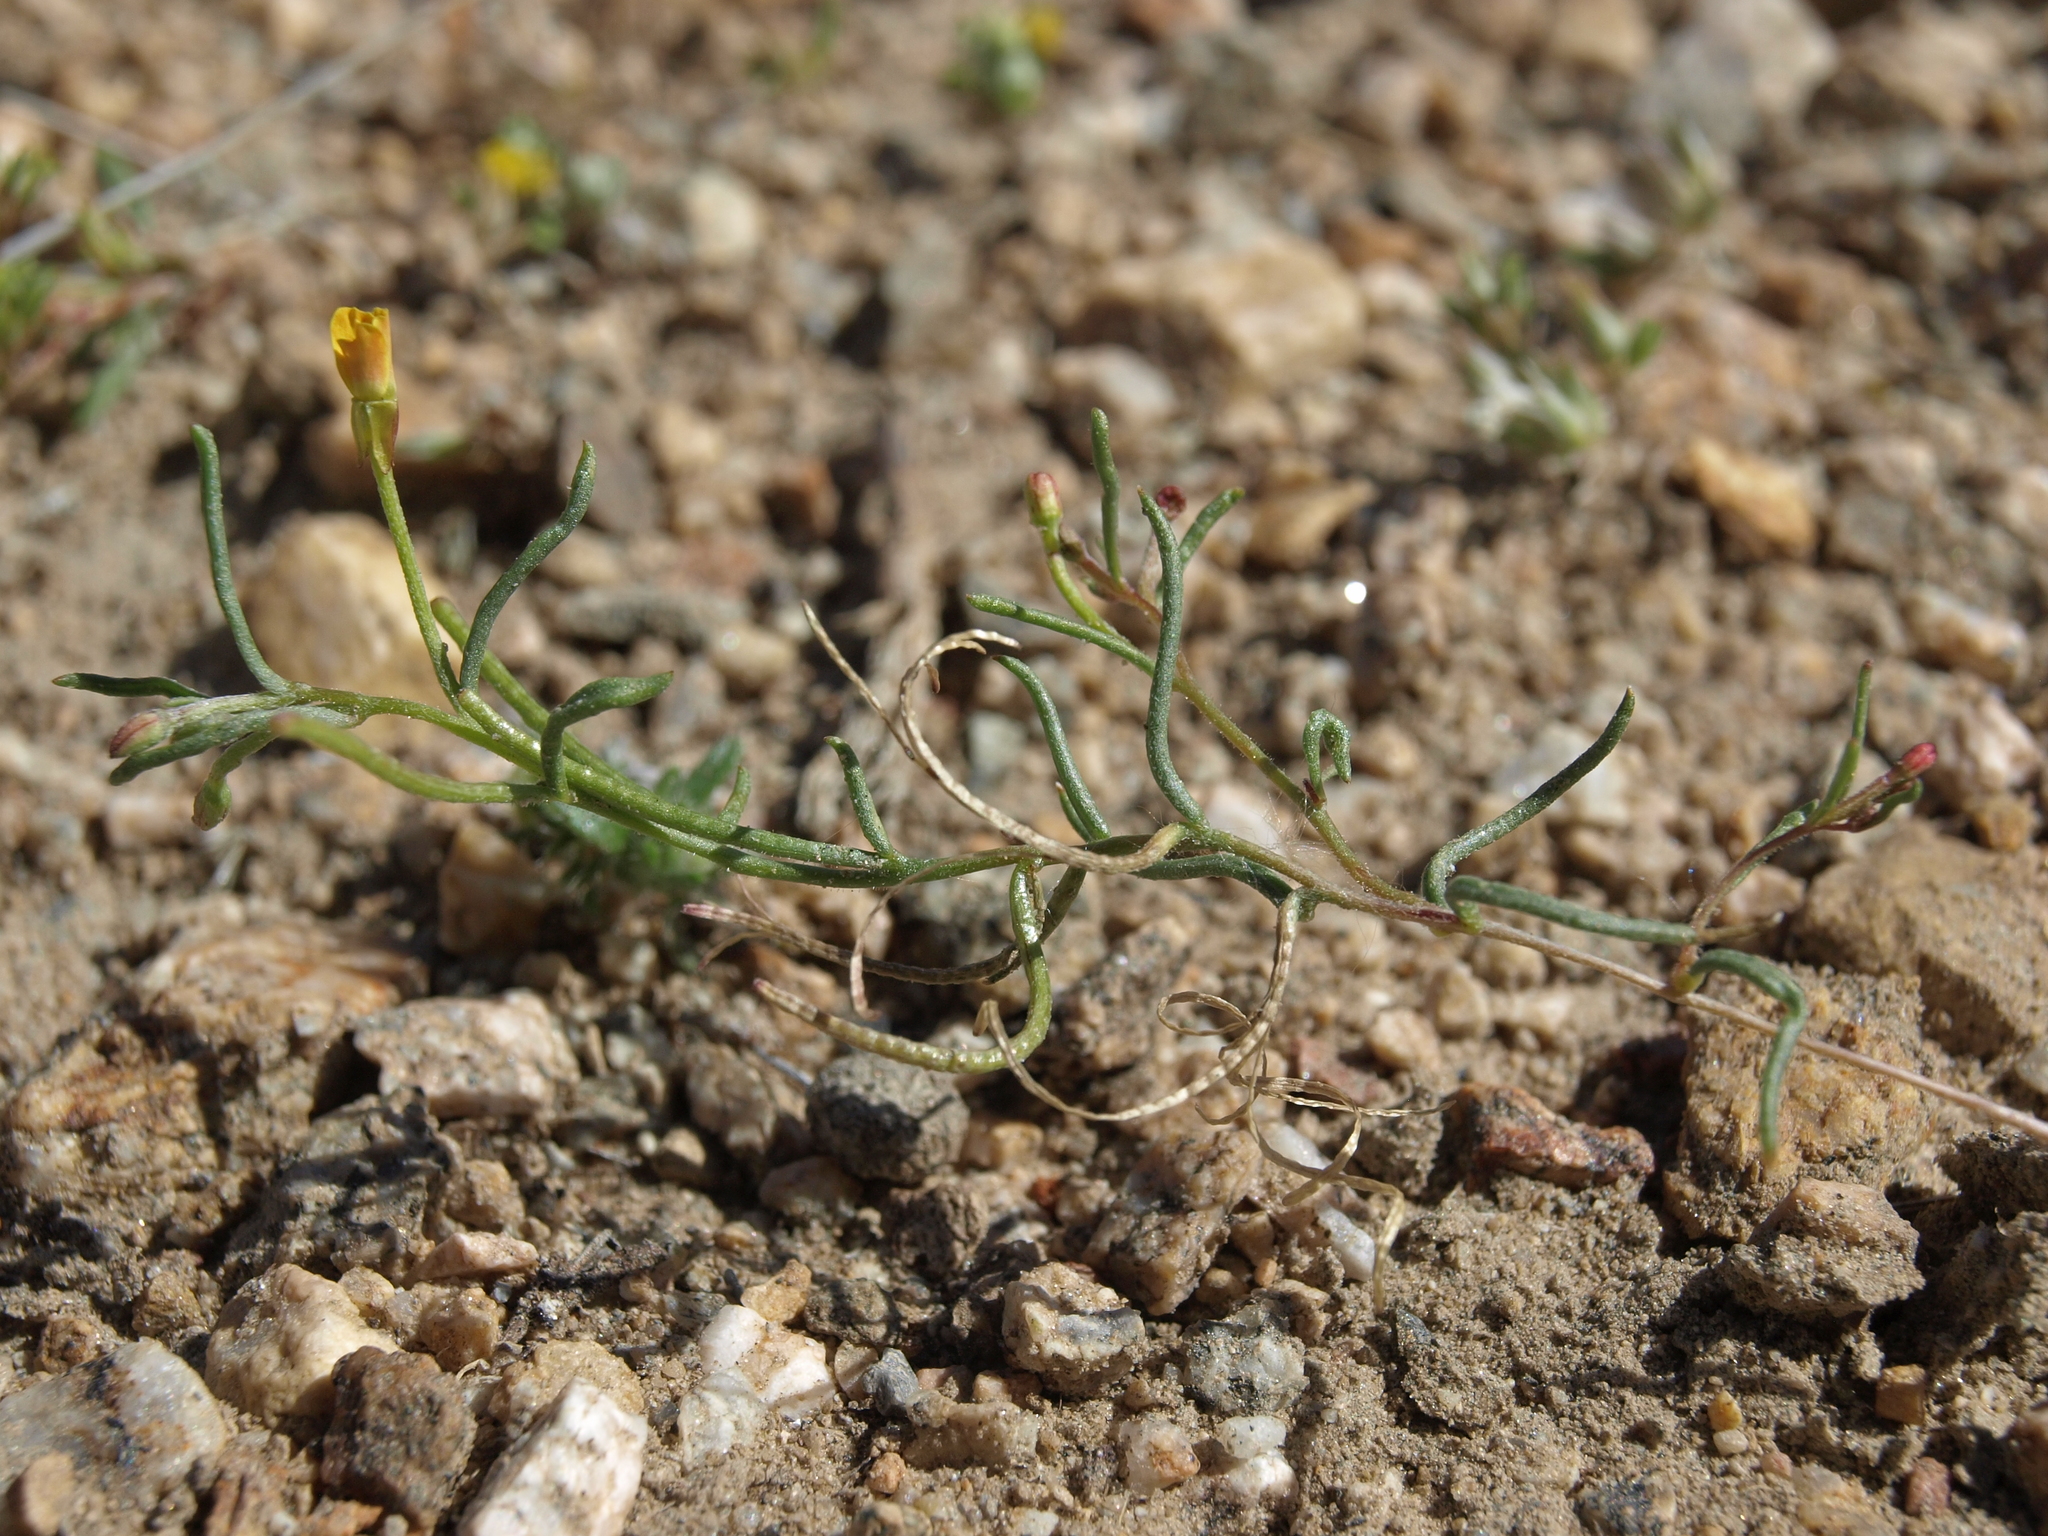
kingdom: Plantae
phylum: Tracheophyta
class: Magnoliopsida
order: Myrtales
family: Onagraceae
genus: Camissonia
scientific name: Camissonia parvula
